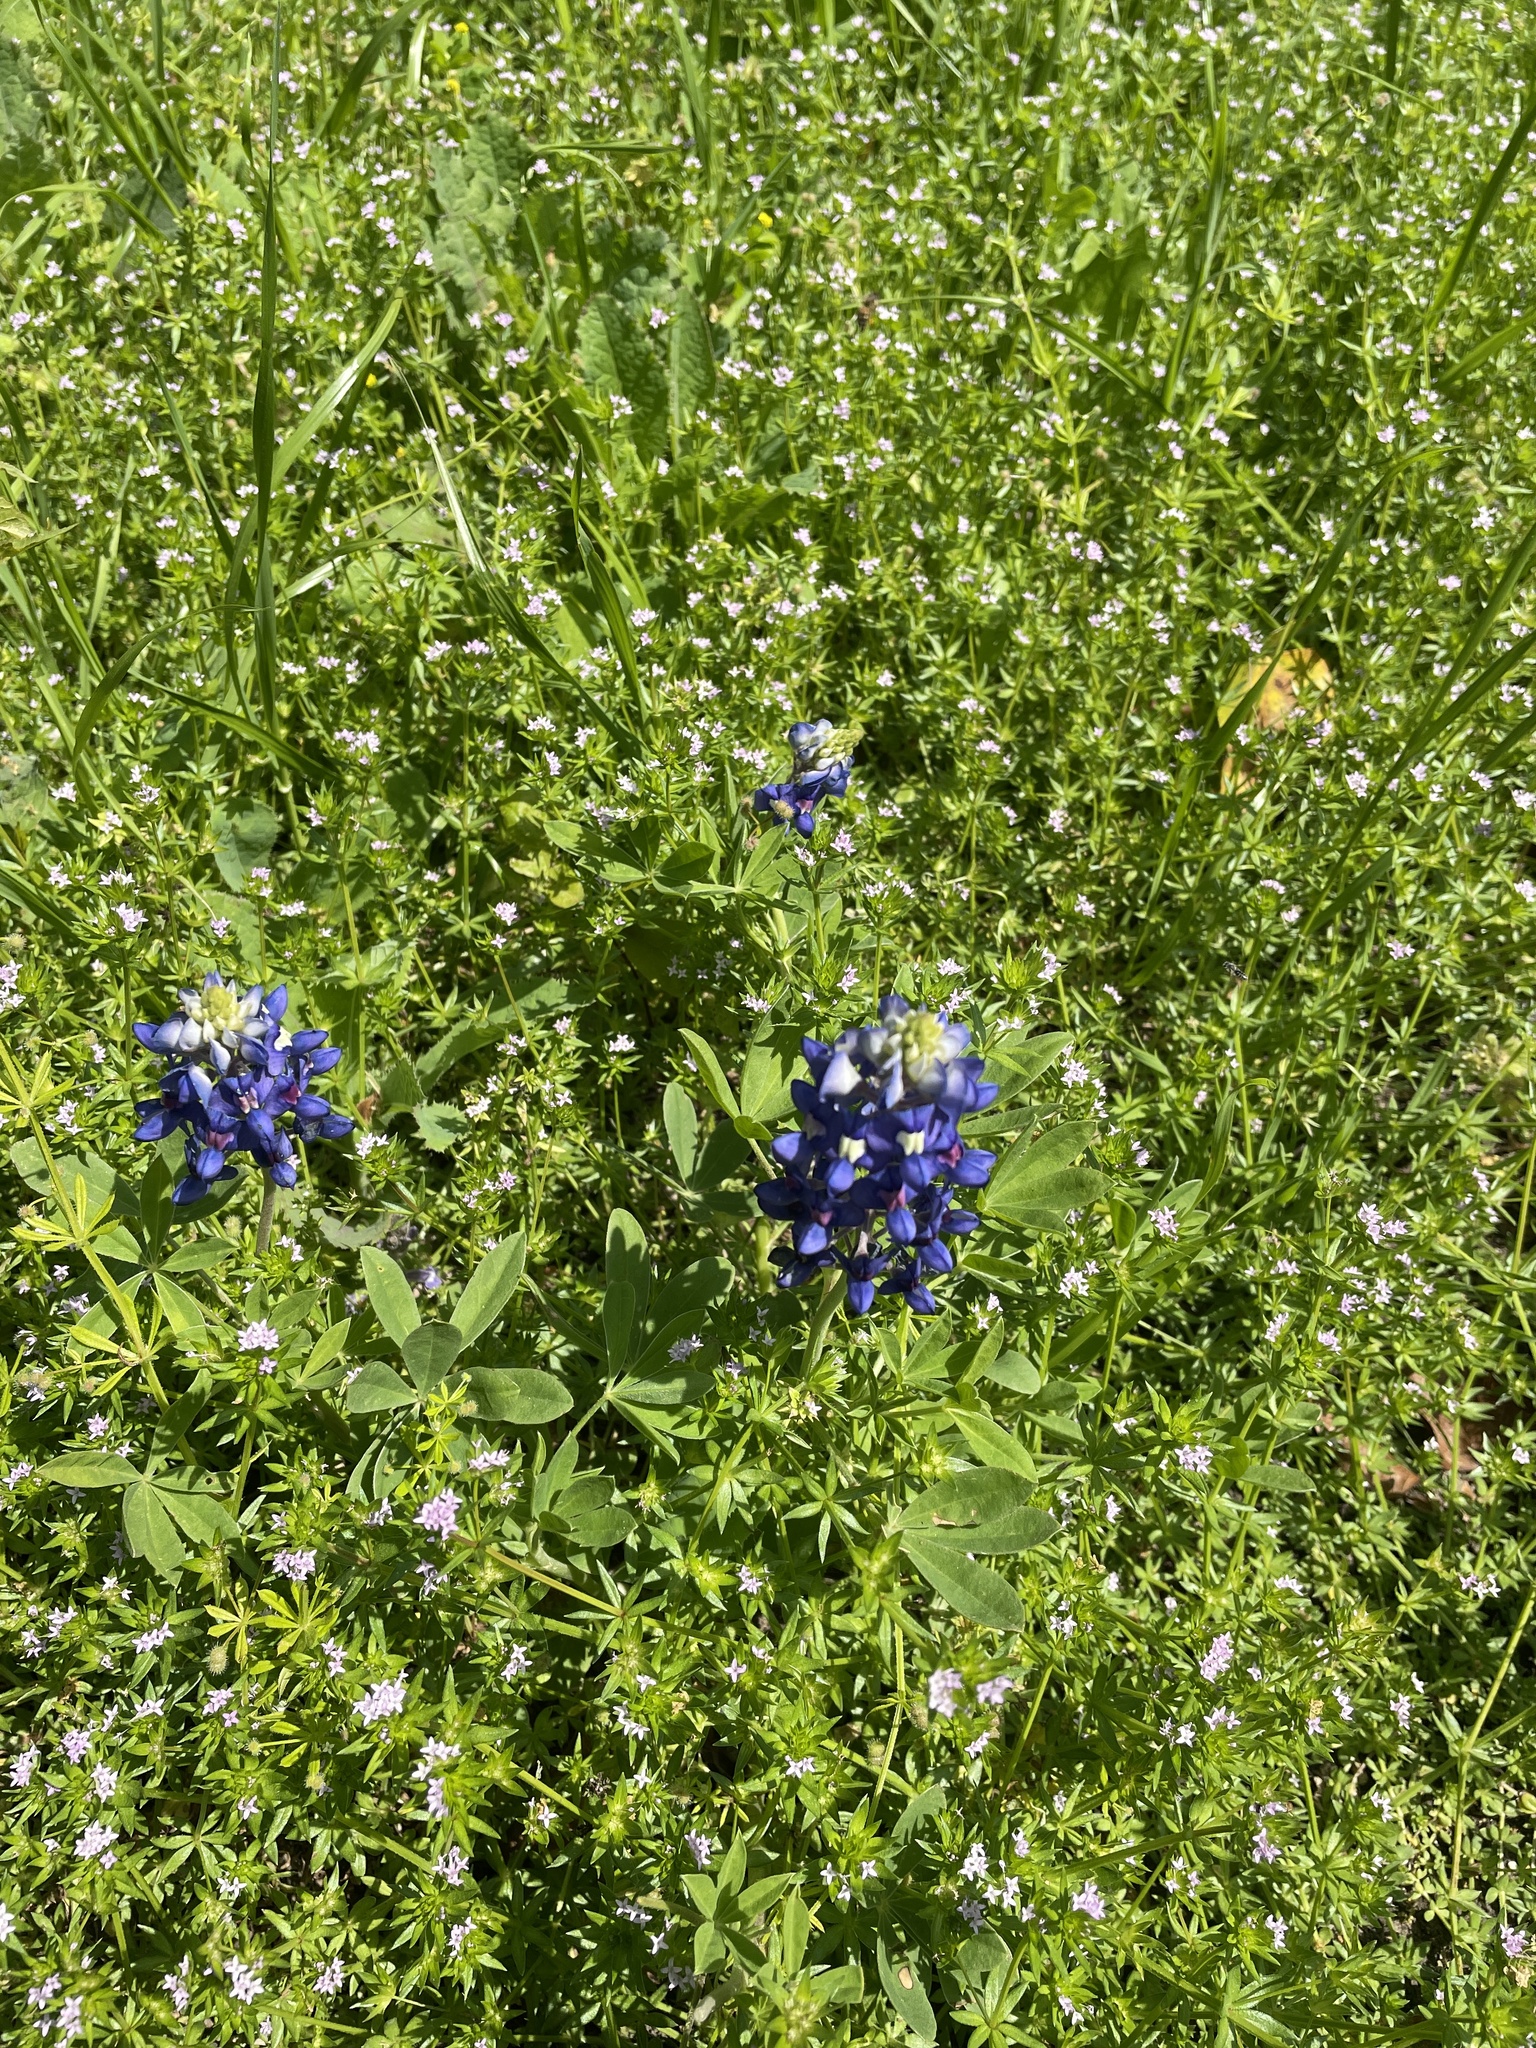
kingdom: Plantae
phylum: Tracheophyta
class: Magnoliopsida
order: Fabales
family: Fabaceae
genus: Lupinus
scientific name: Lupinus texensis
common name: Texas bluebonnet
